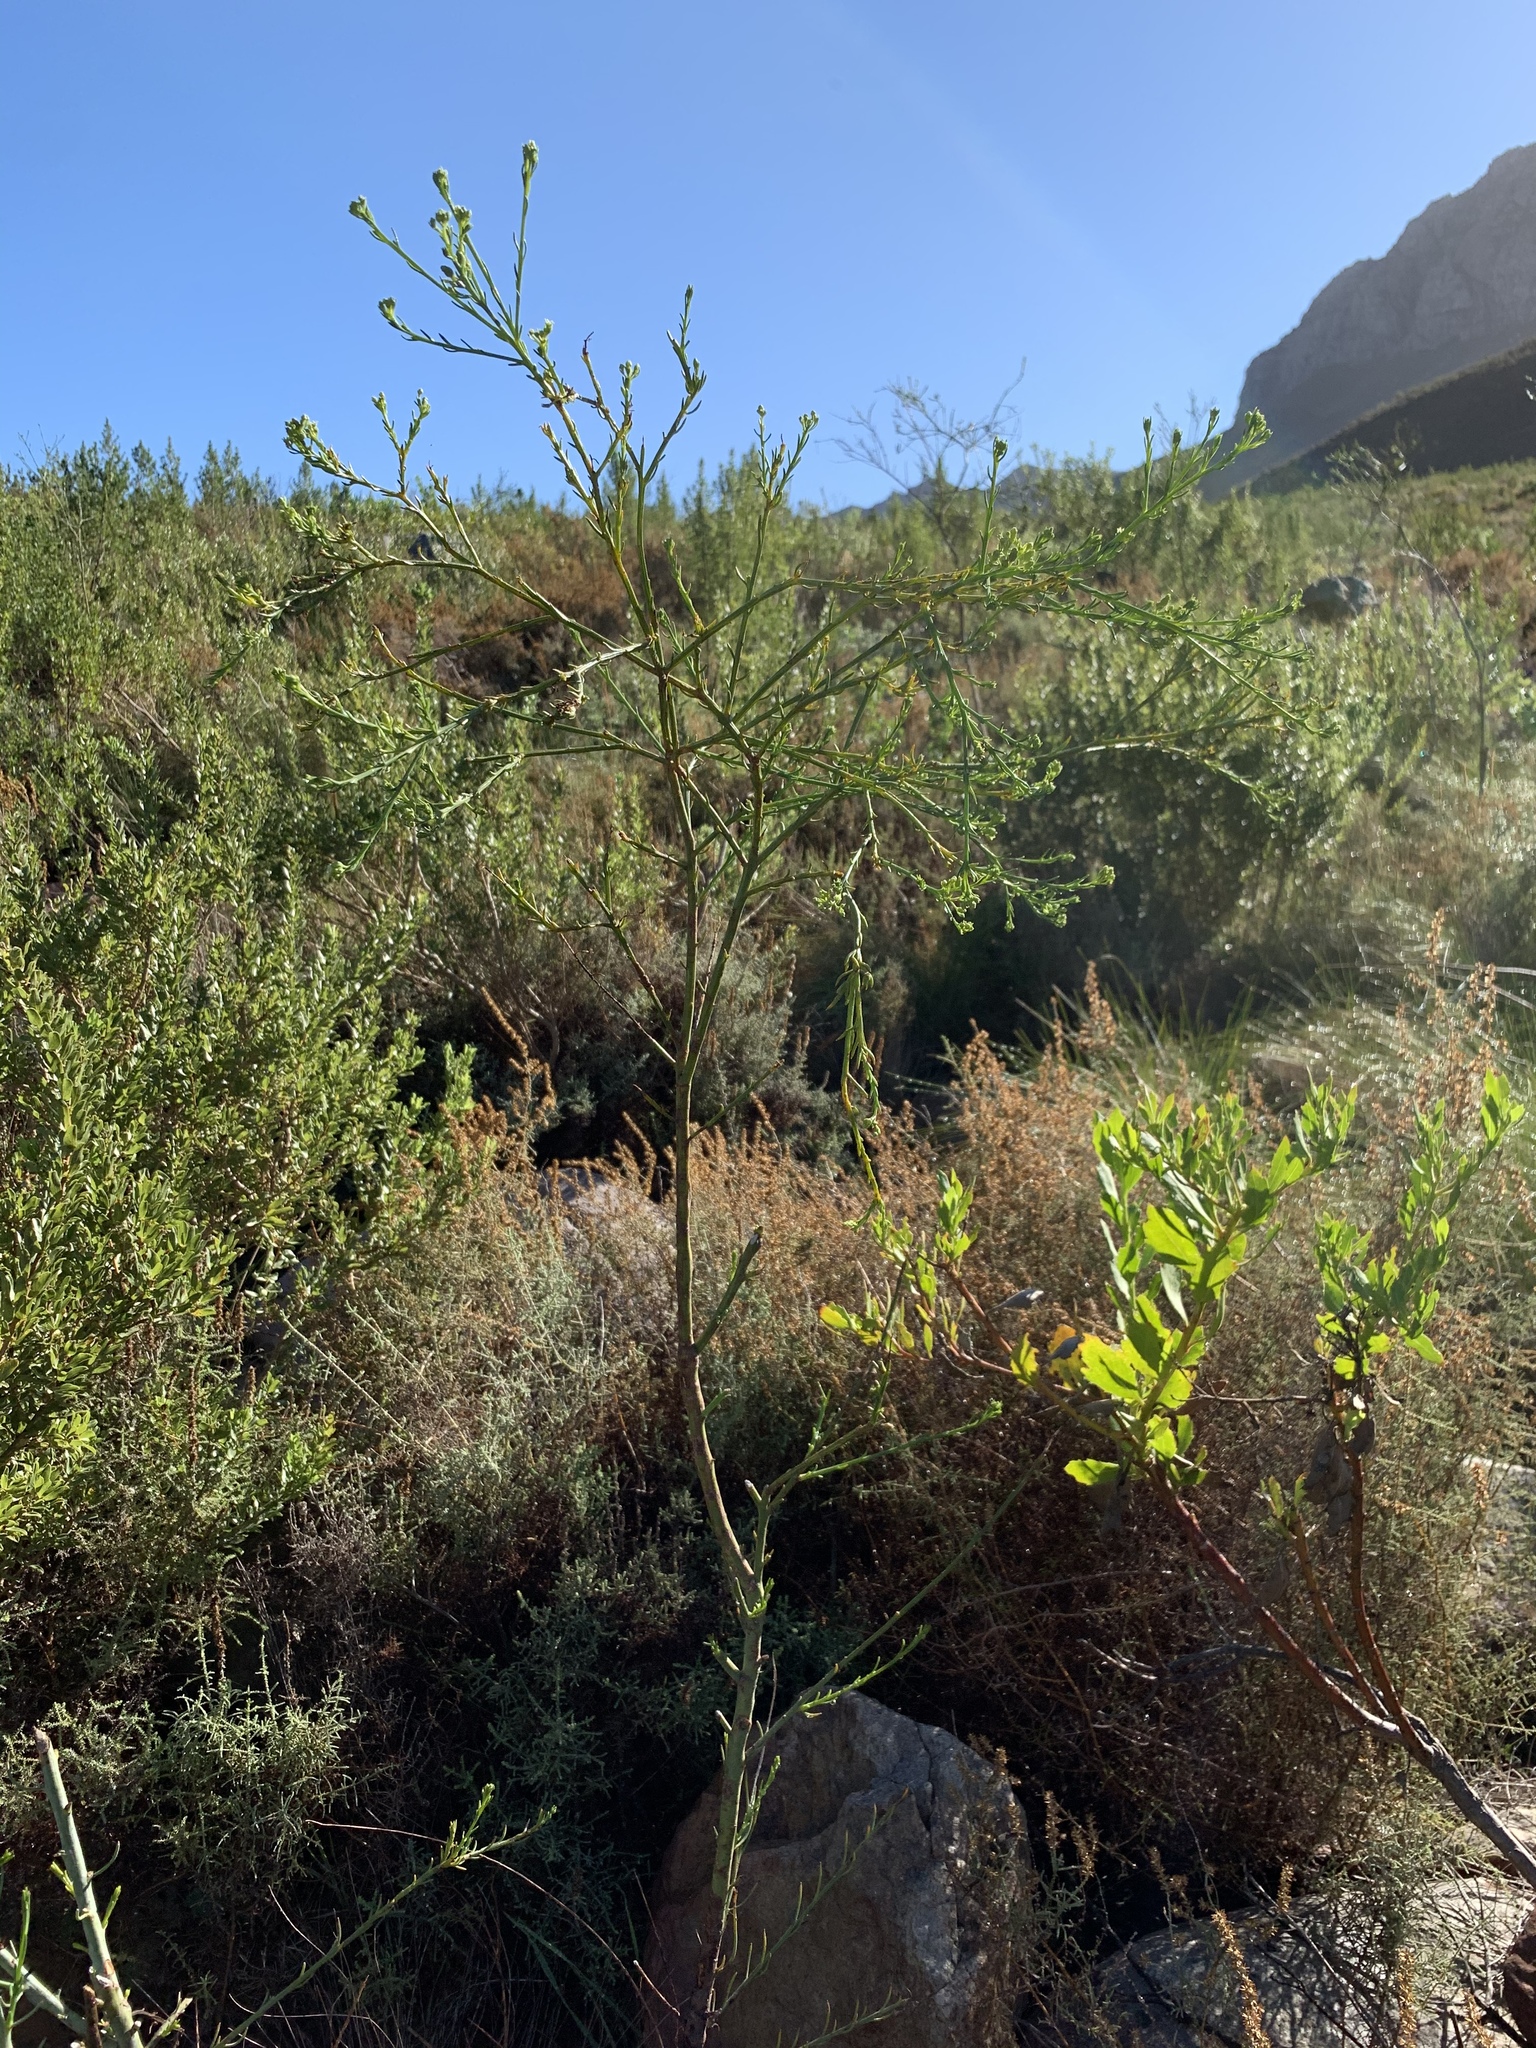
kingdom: Plantae
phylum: Tracheophyta
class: Magnoliopsida
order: Santalales
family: Thesiaceae
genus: Thesium
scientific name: Thesium strictum
